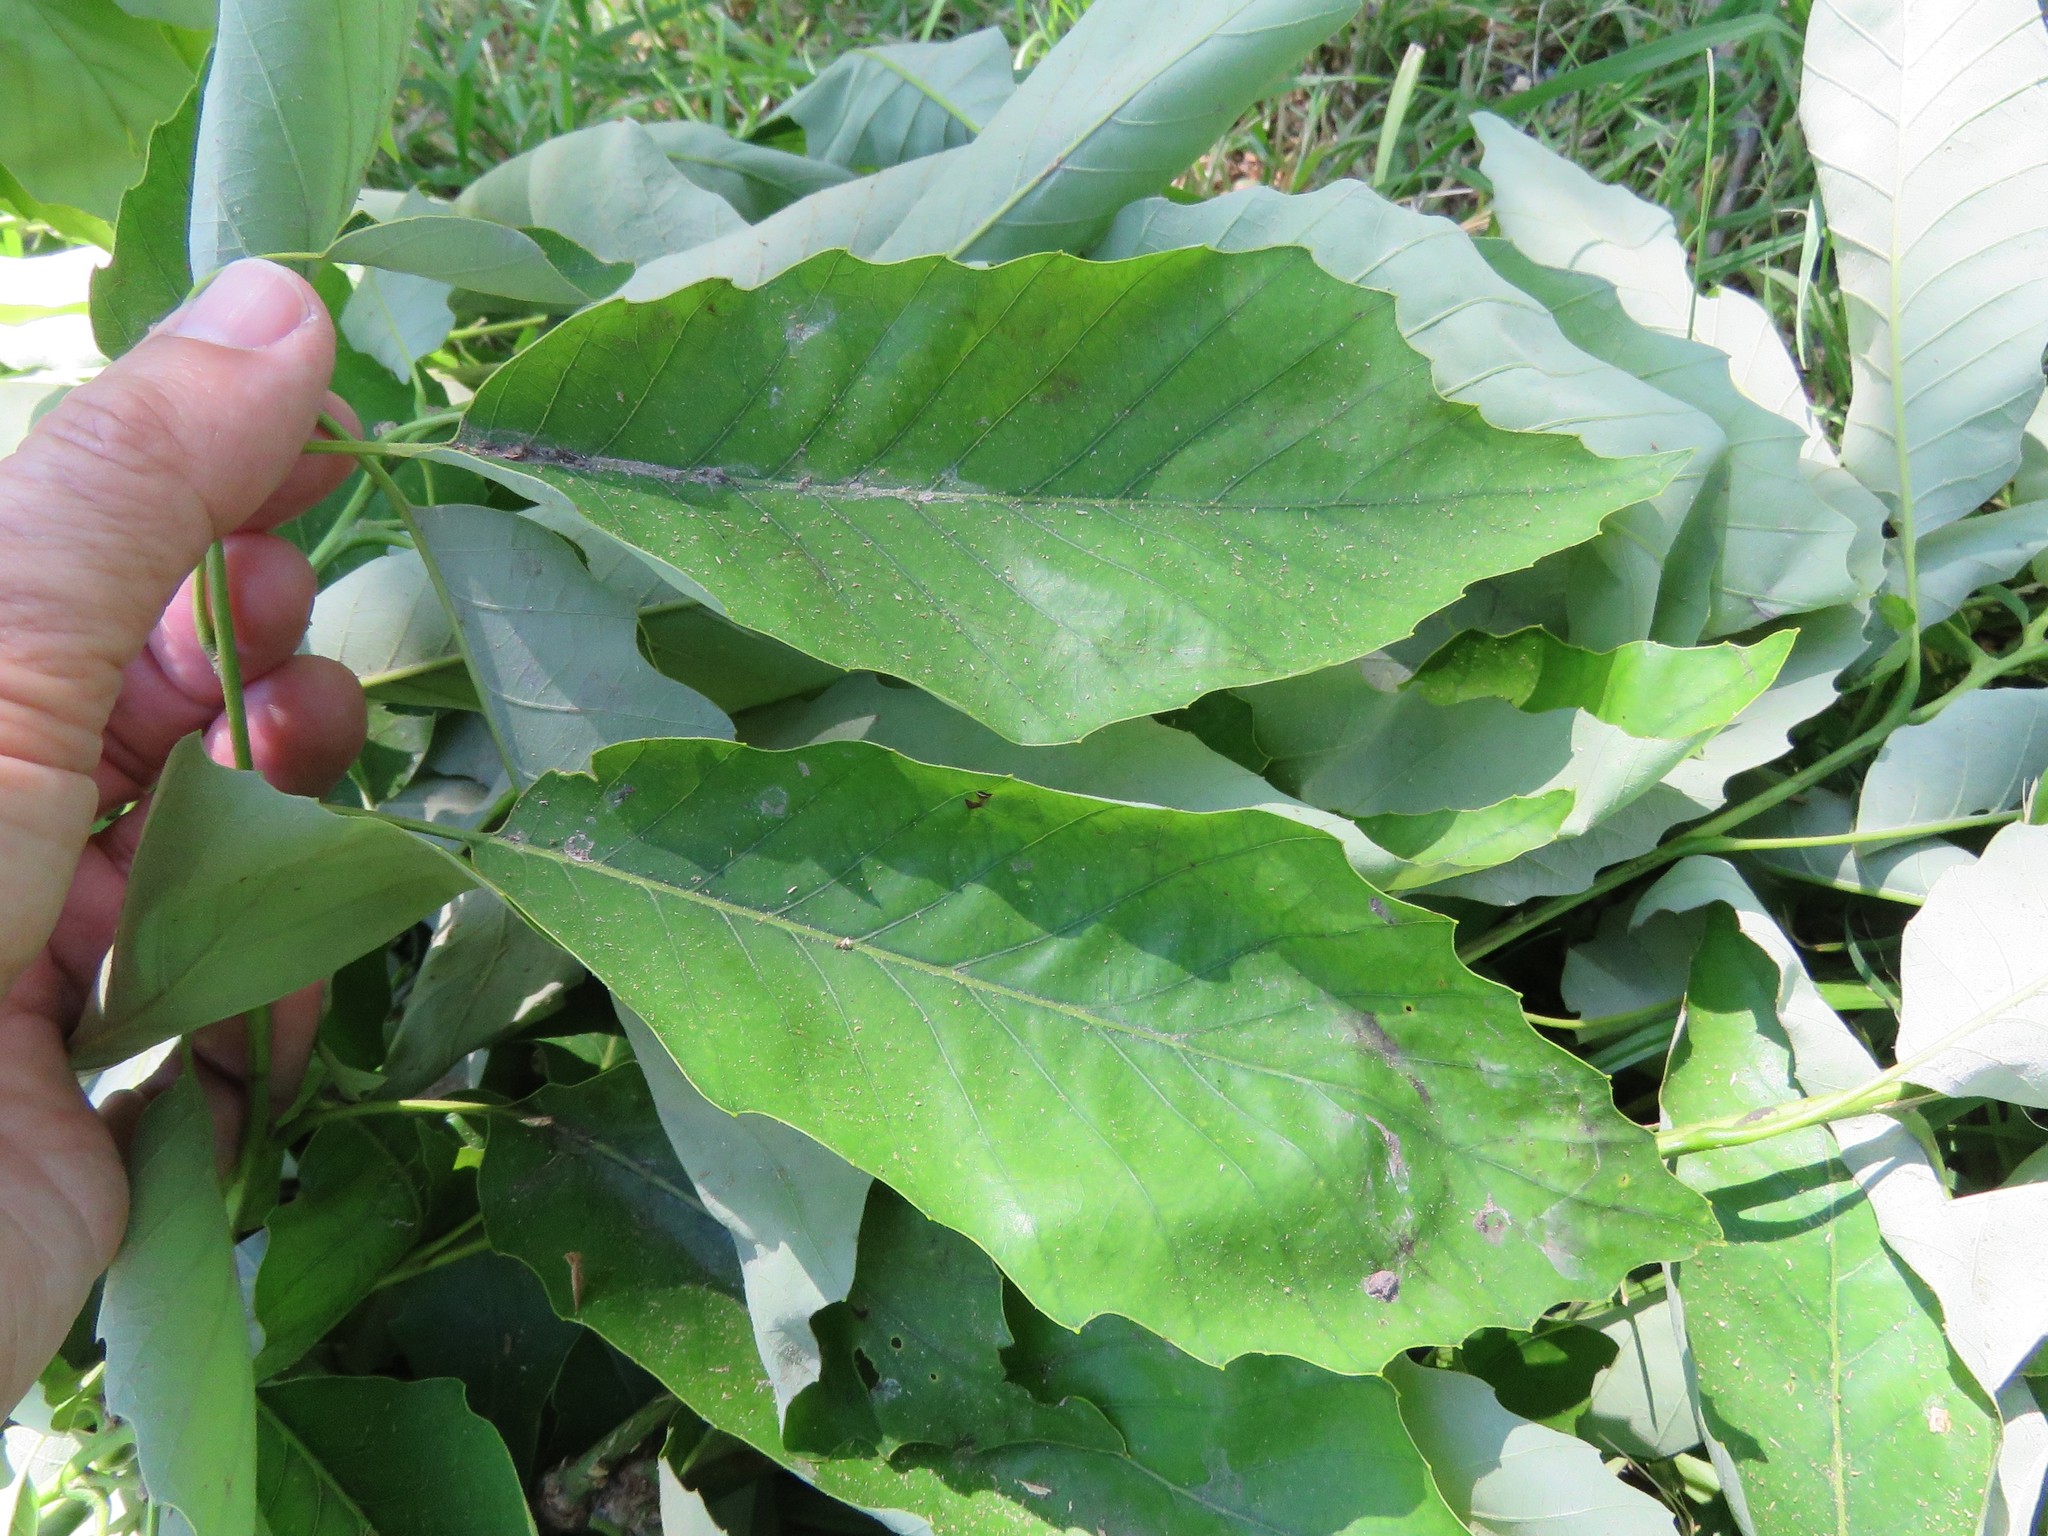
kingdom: Plantae
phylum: Tracheophyta
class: Magnoliopsida
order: Fagales
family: Fagaceae
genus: Quercus
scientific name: Quercus muehlenbergii
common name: Chinkapin oak
